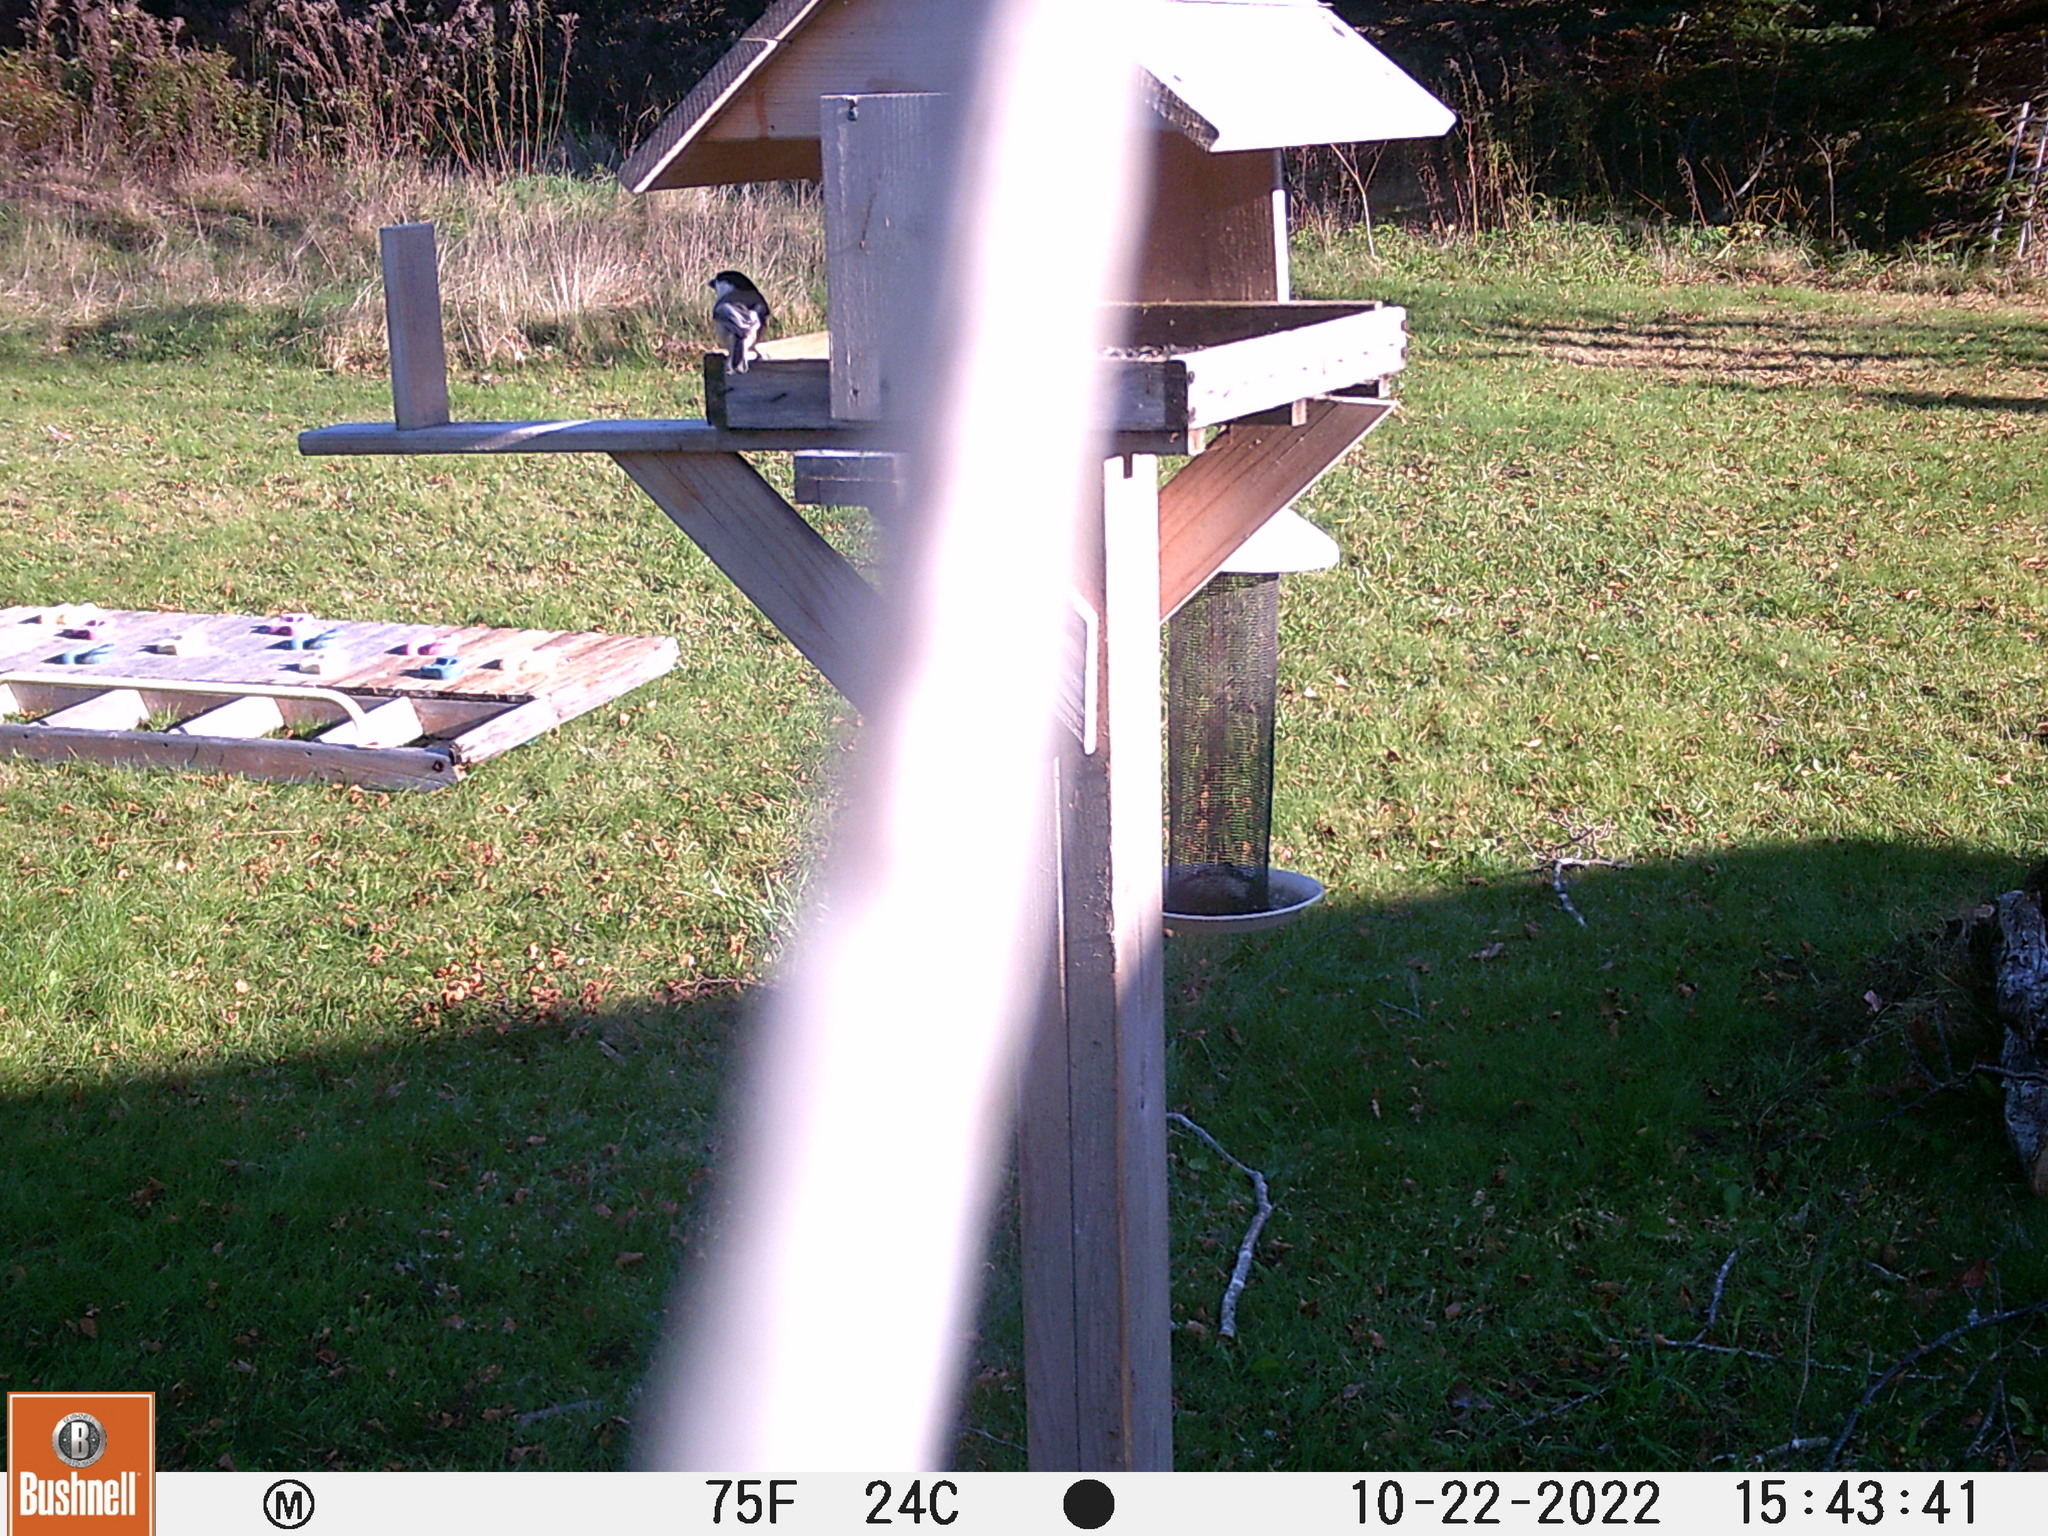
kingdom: Animalia
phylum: Chordata
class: Aves
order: Passeriformes
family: Paridae
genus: Poecile
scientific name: Poecile atricapillus
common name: Black-capped chickadee
